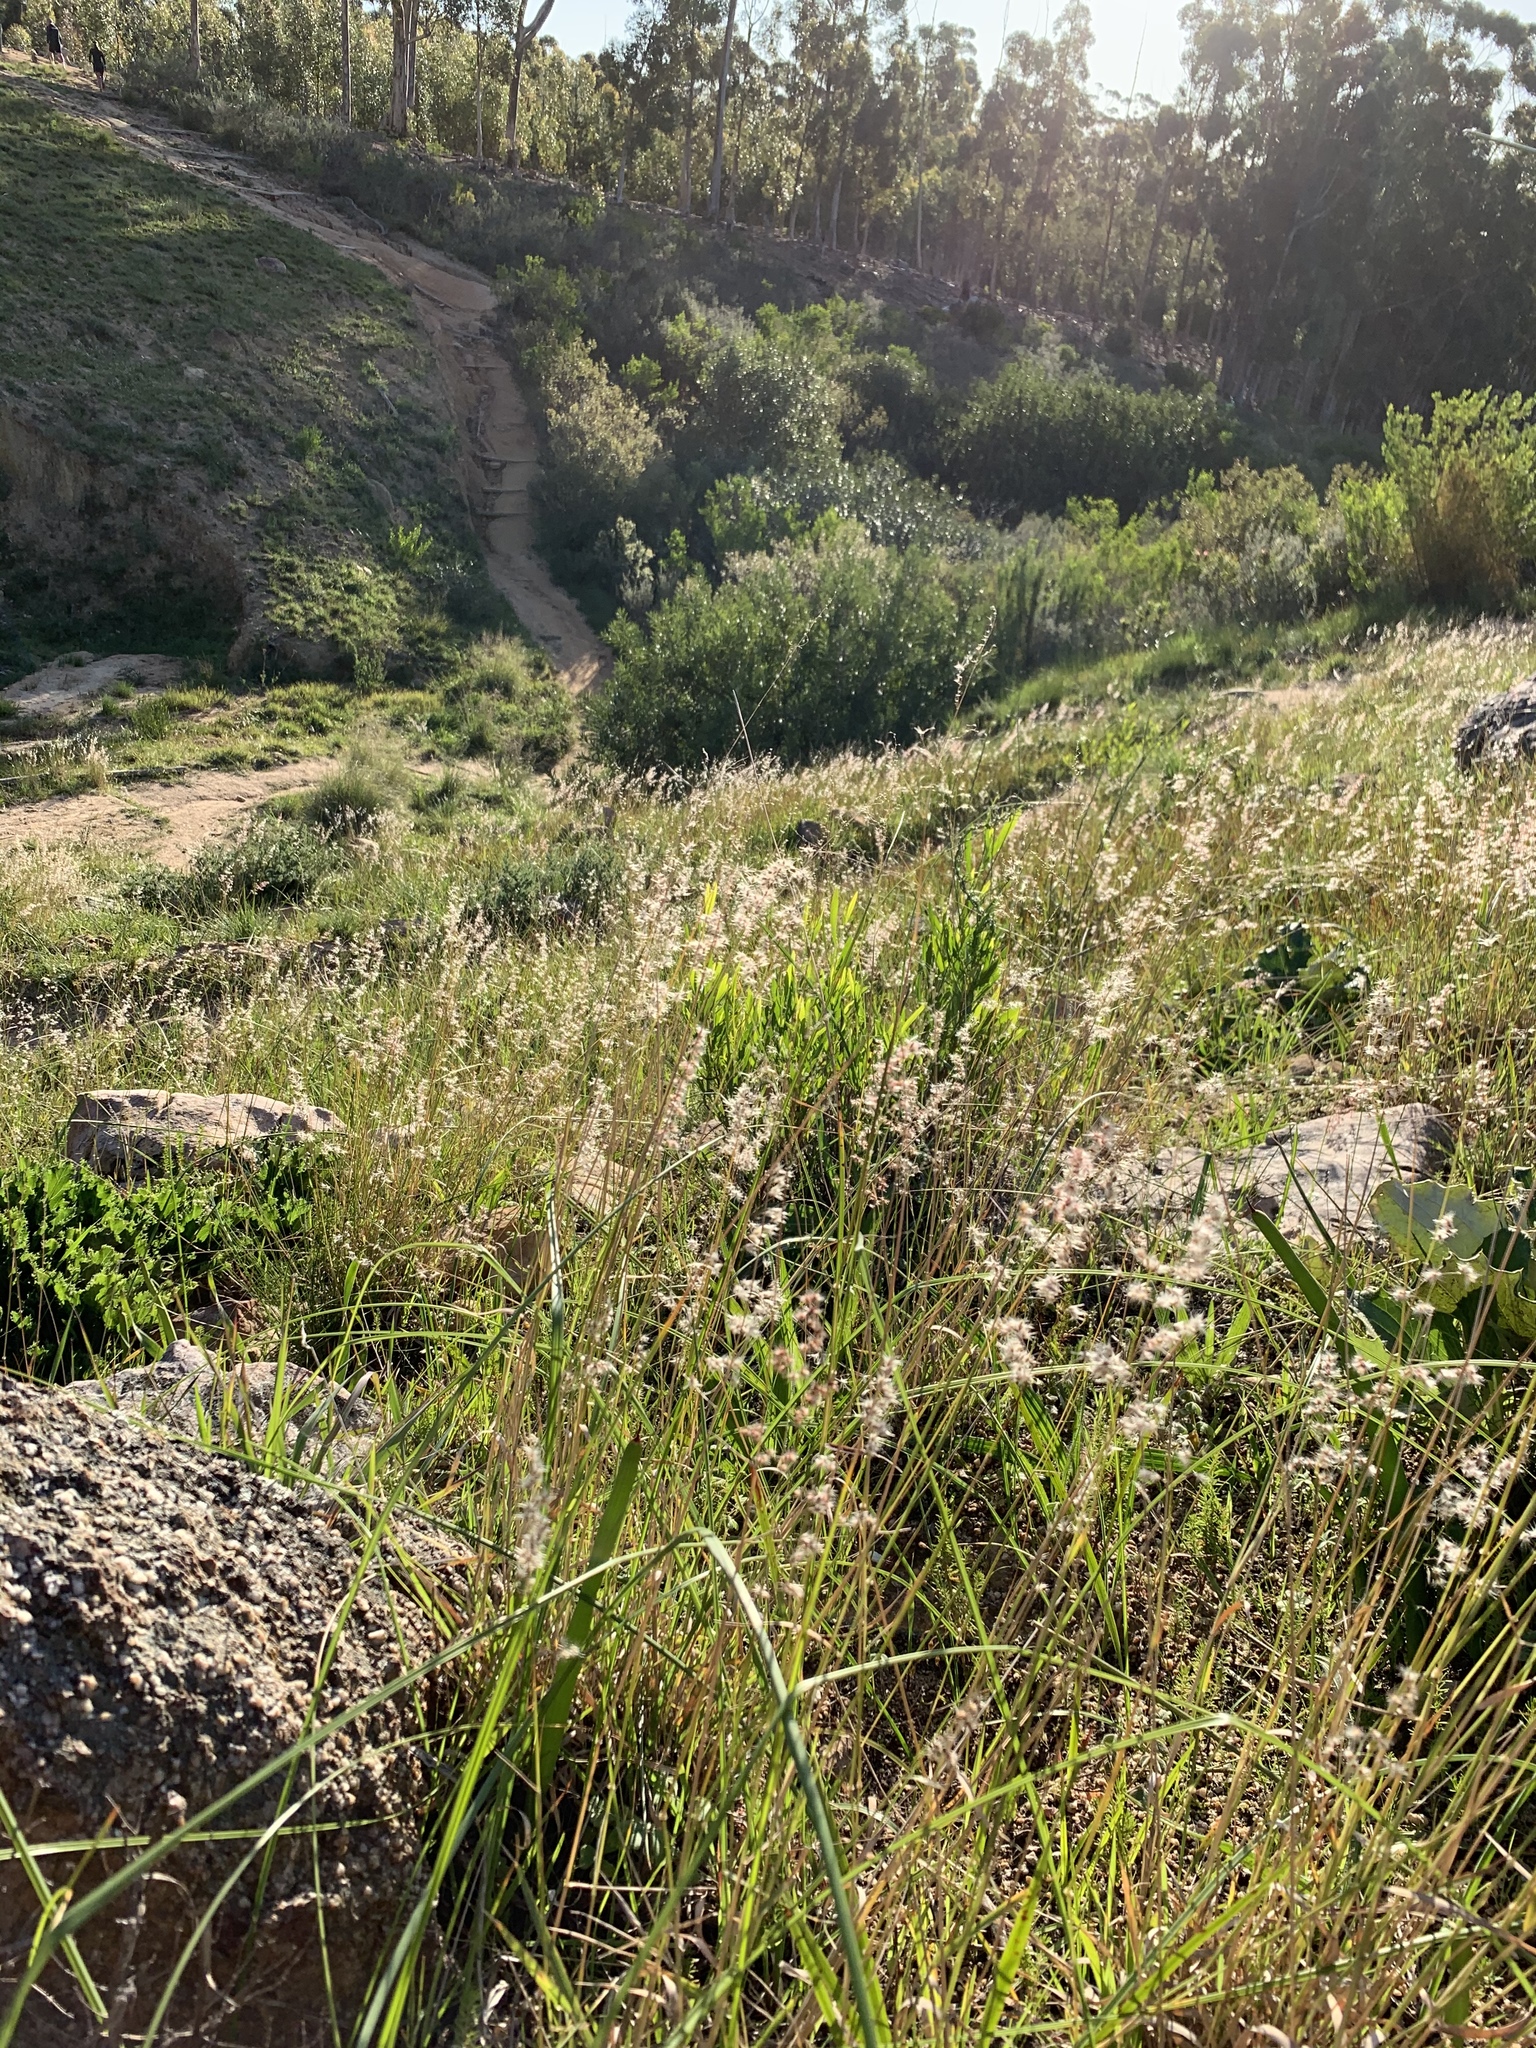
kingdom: Plantae
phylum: Tracheophyta
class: Liliopsida
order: Poales
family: Poaceae
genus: Melinis
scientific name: Melinis repens
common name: Rose natal grass
